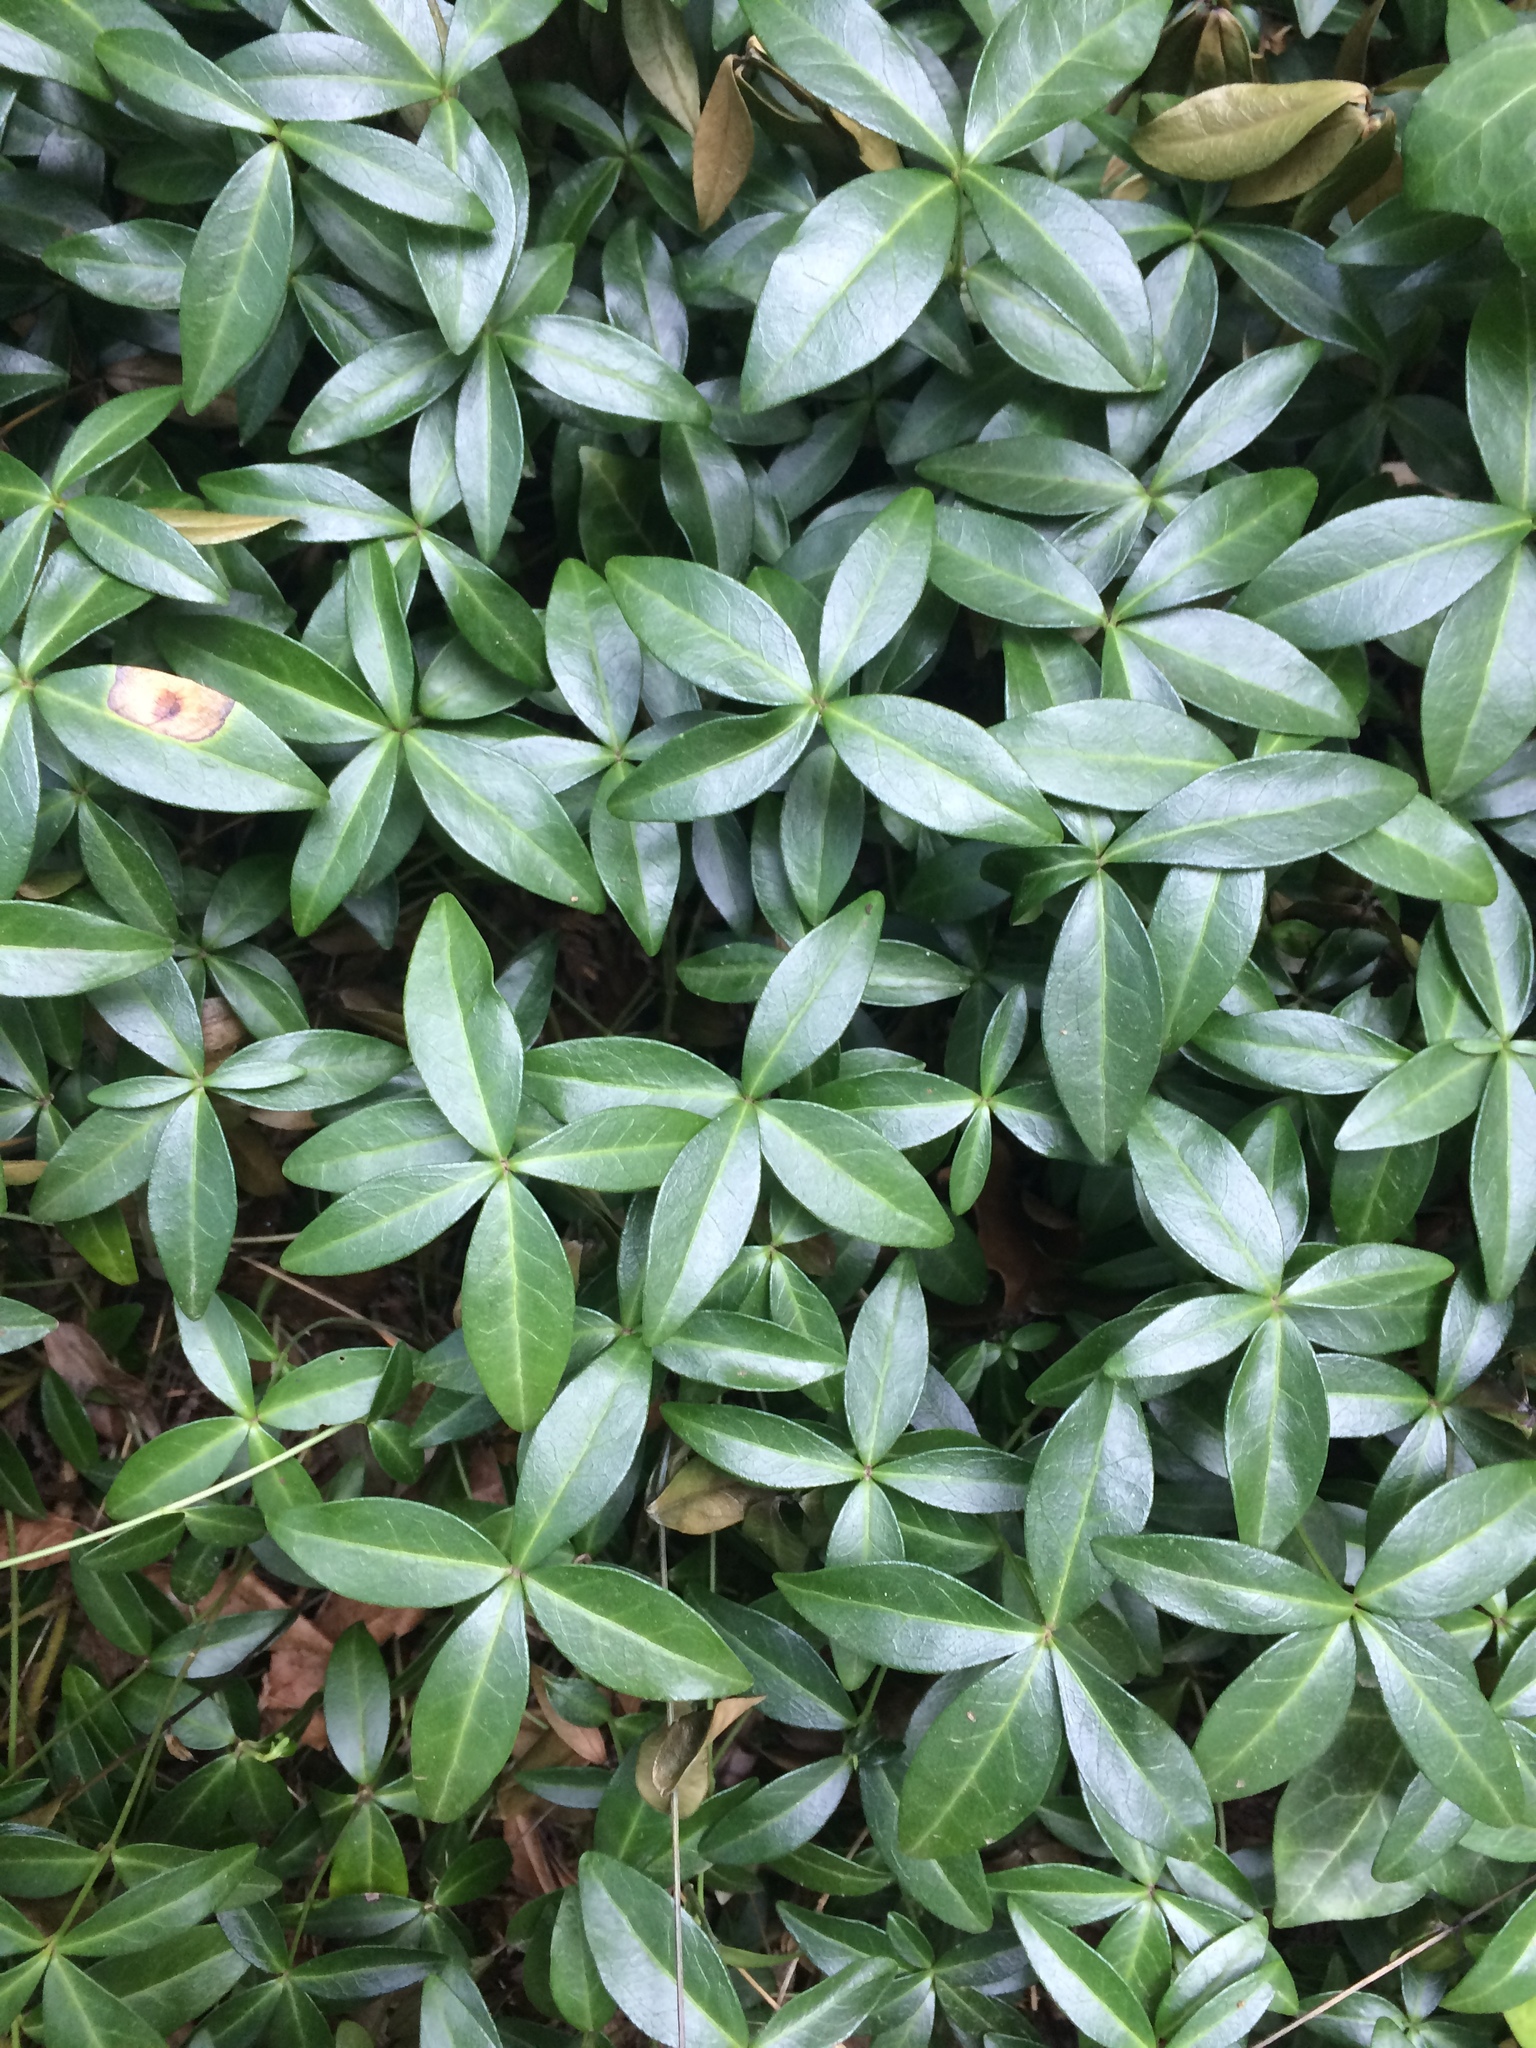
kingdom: Plantae
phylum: Tracheophyta
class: Magnoliopsida
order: Gentianales
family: Apocynaceae
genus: Vinca
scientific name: Vinca minor
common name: Lesser periwinkle
